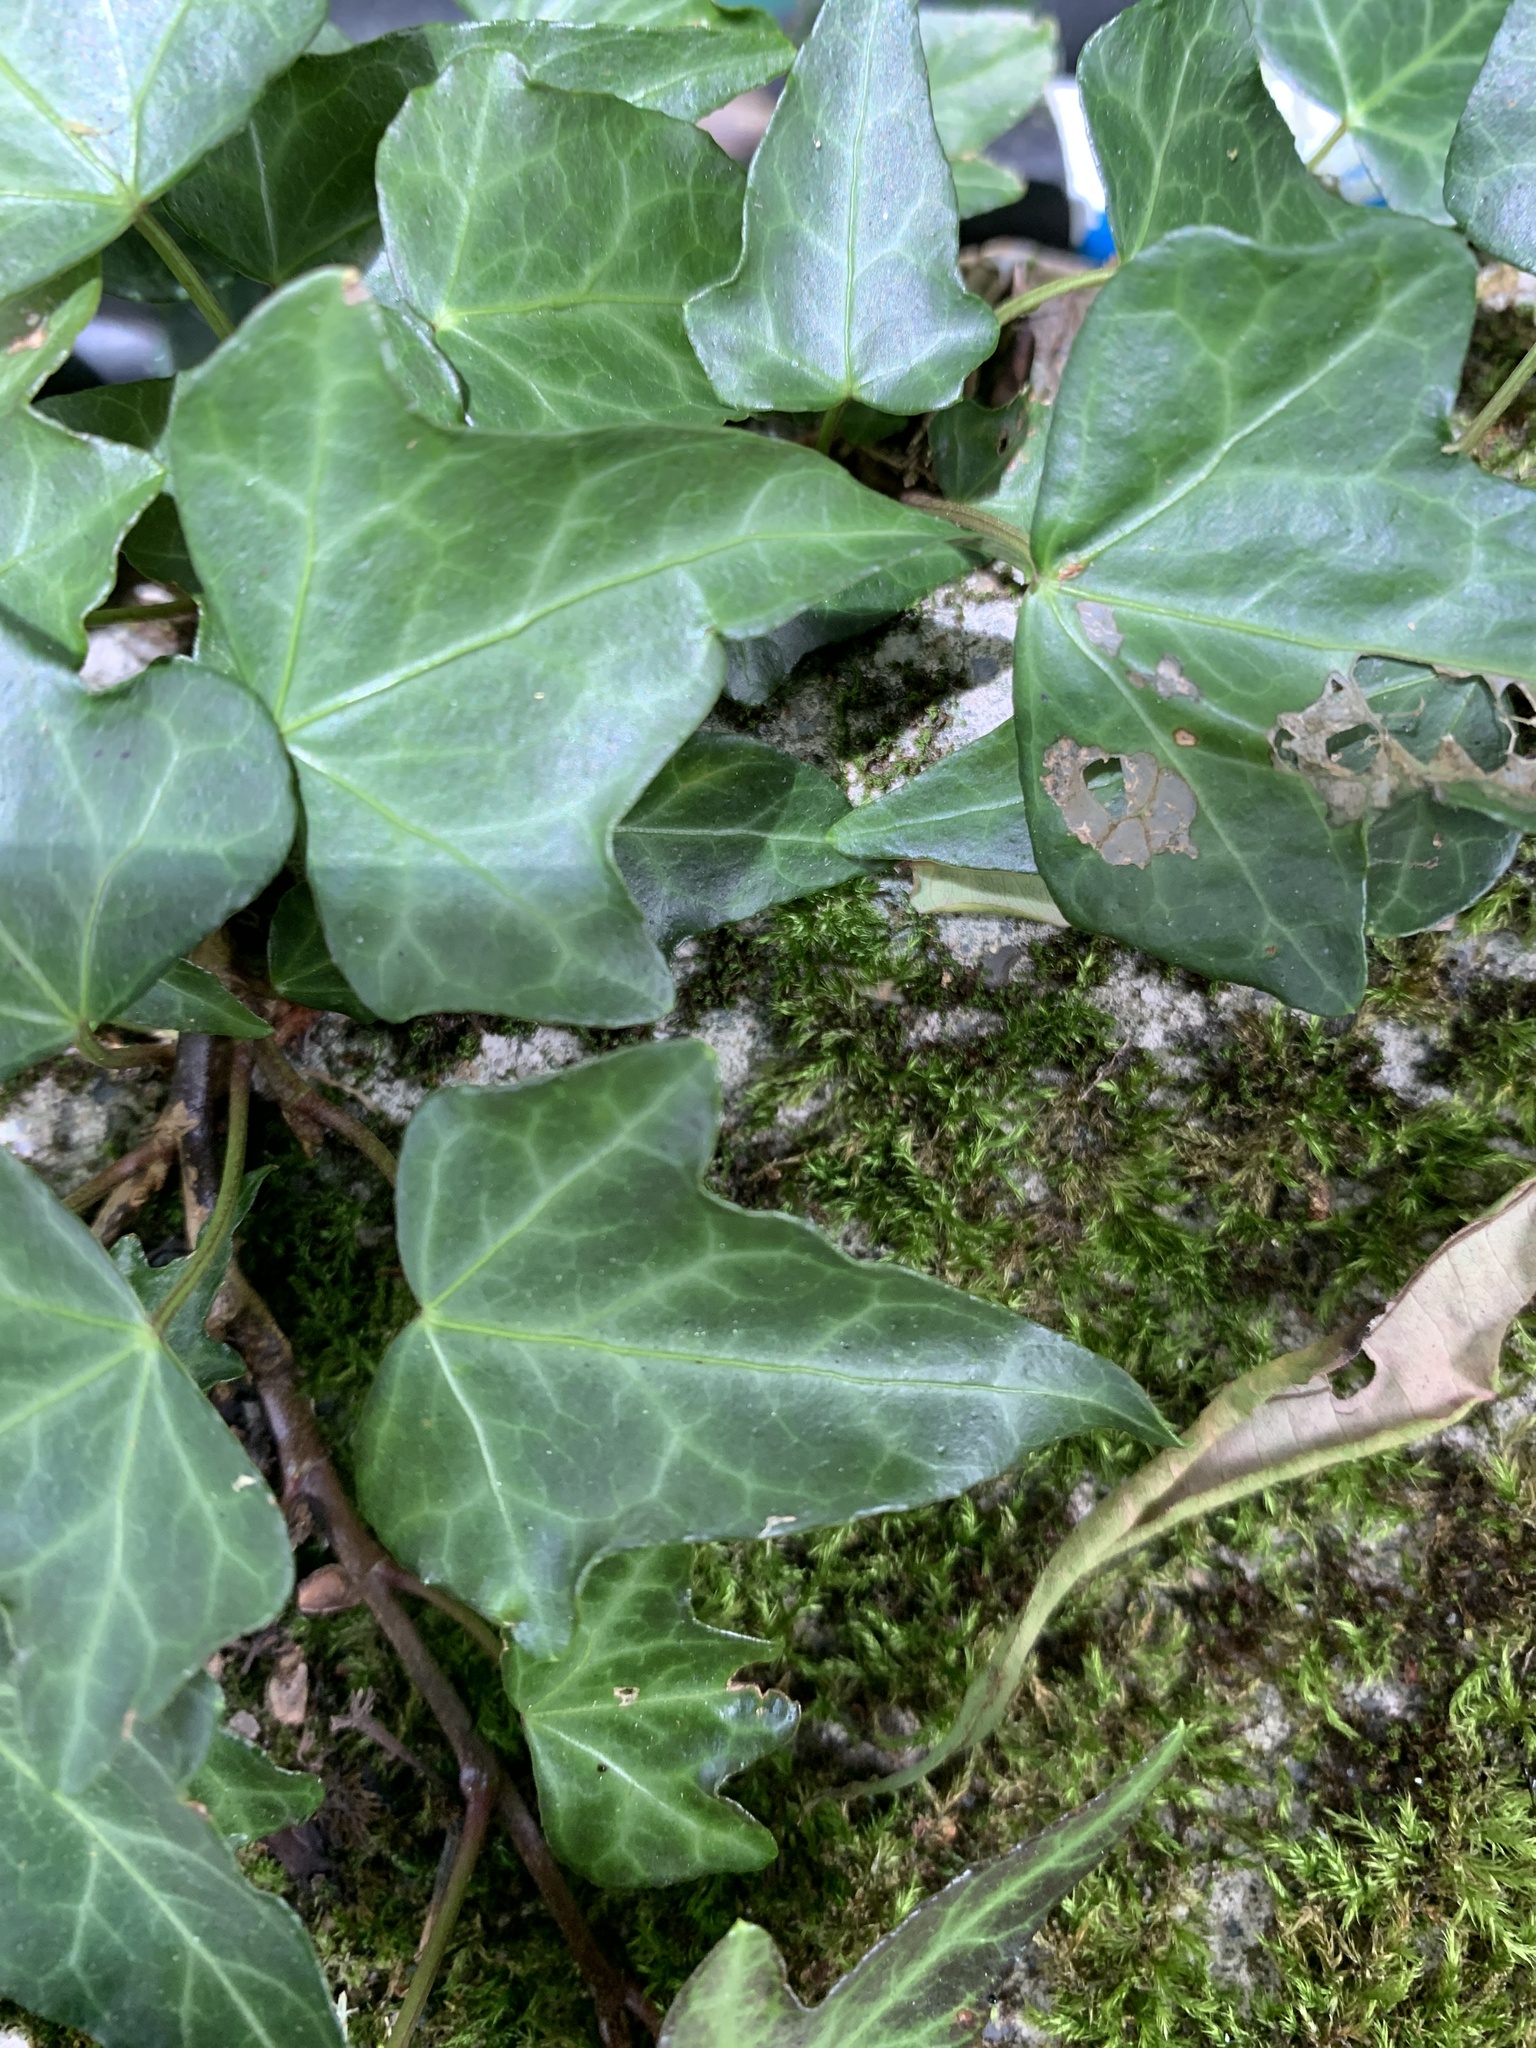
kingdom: Plantae
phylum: Tracheophyta
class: Magnoliopsida
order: Apiales
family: Araliaceae
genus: Hedera
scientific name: Hedera rhombea
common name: Japanese ivy
